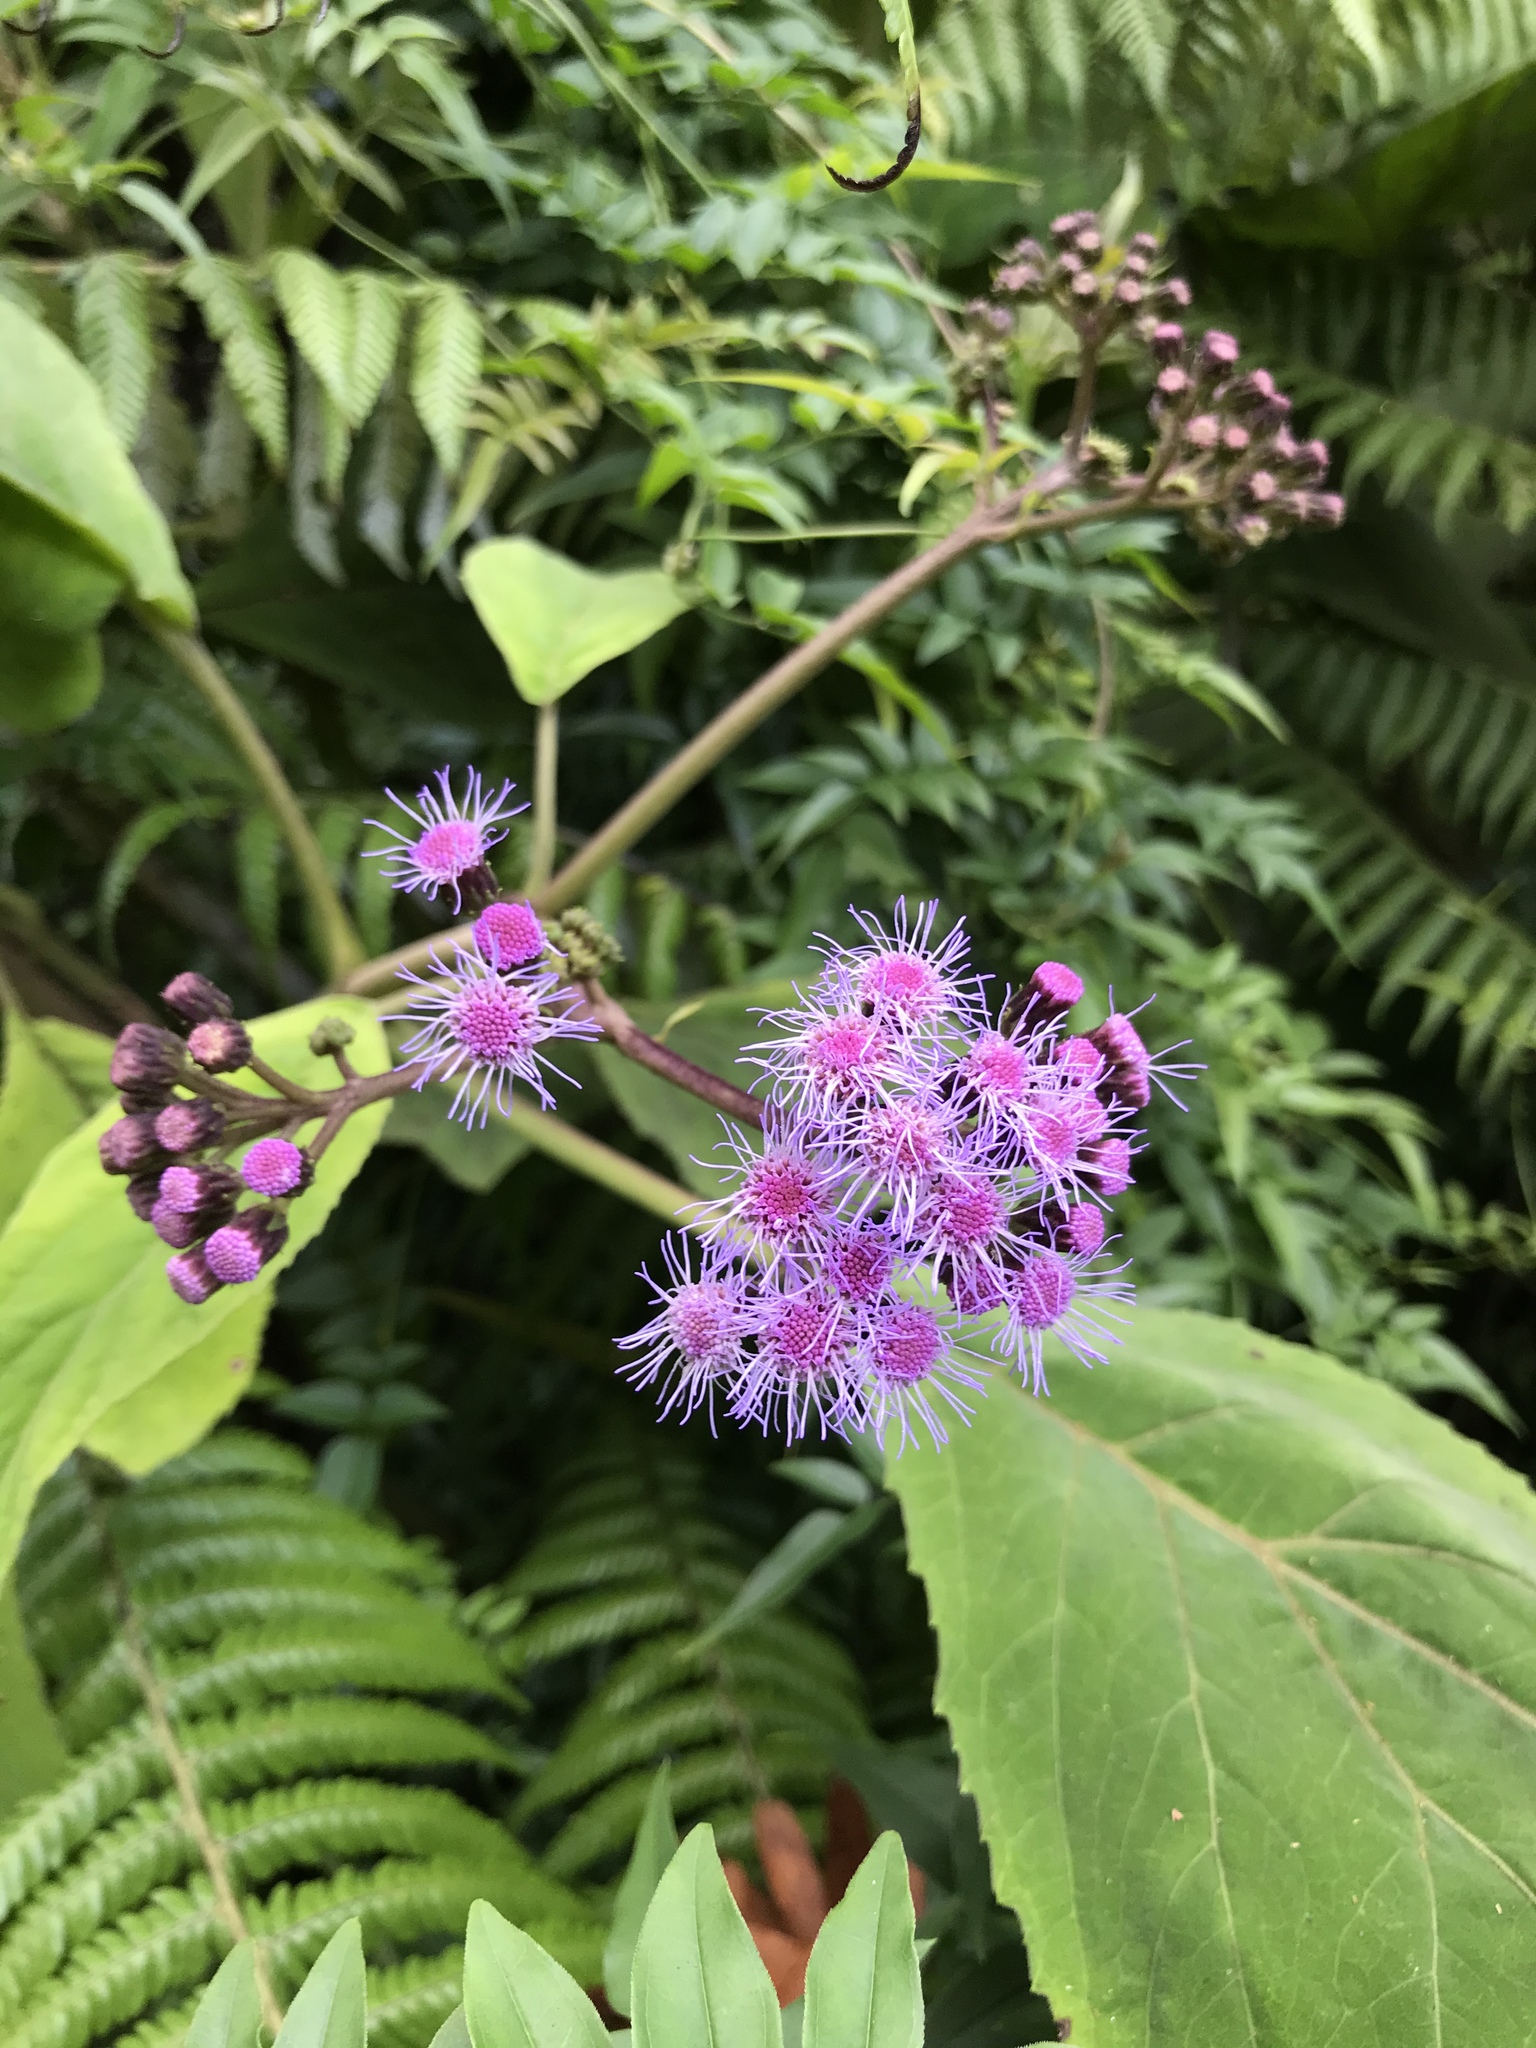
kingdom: Plantae
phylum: Tracheophyta
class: Magnoliopsida
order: Asterales
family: Asteraceae
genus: Bartlettina
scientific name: Bartlettina sordida
